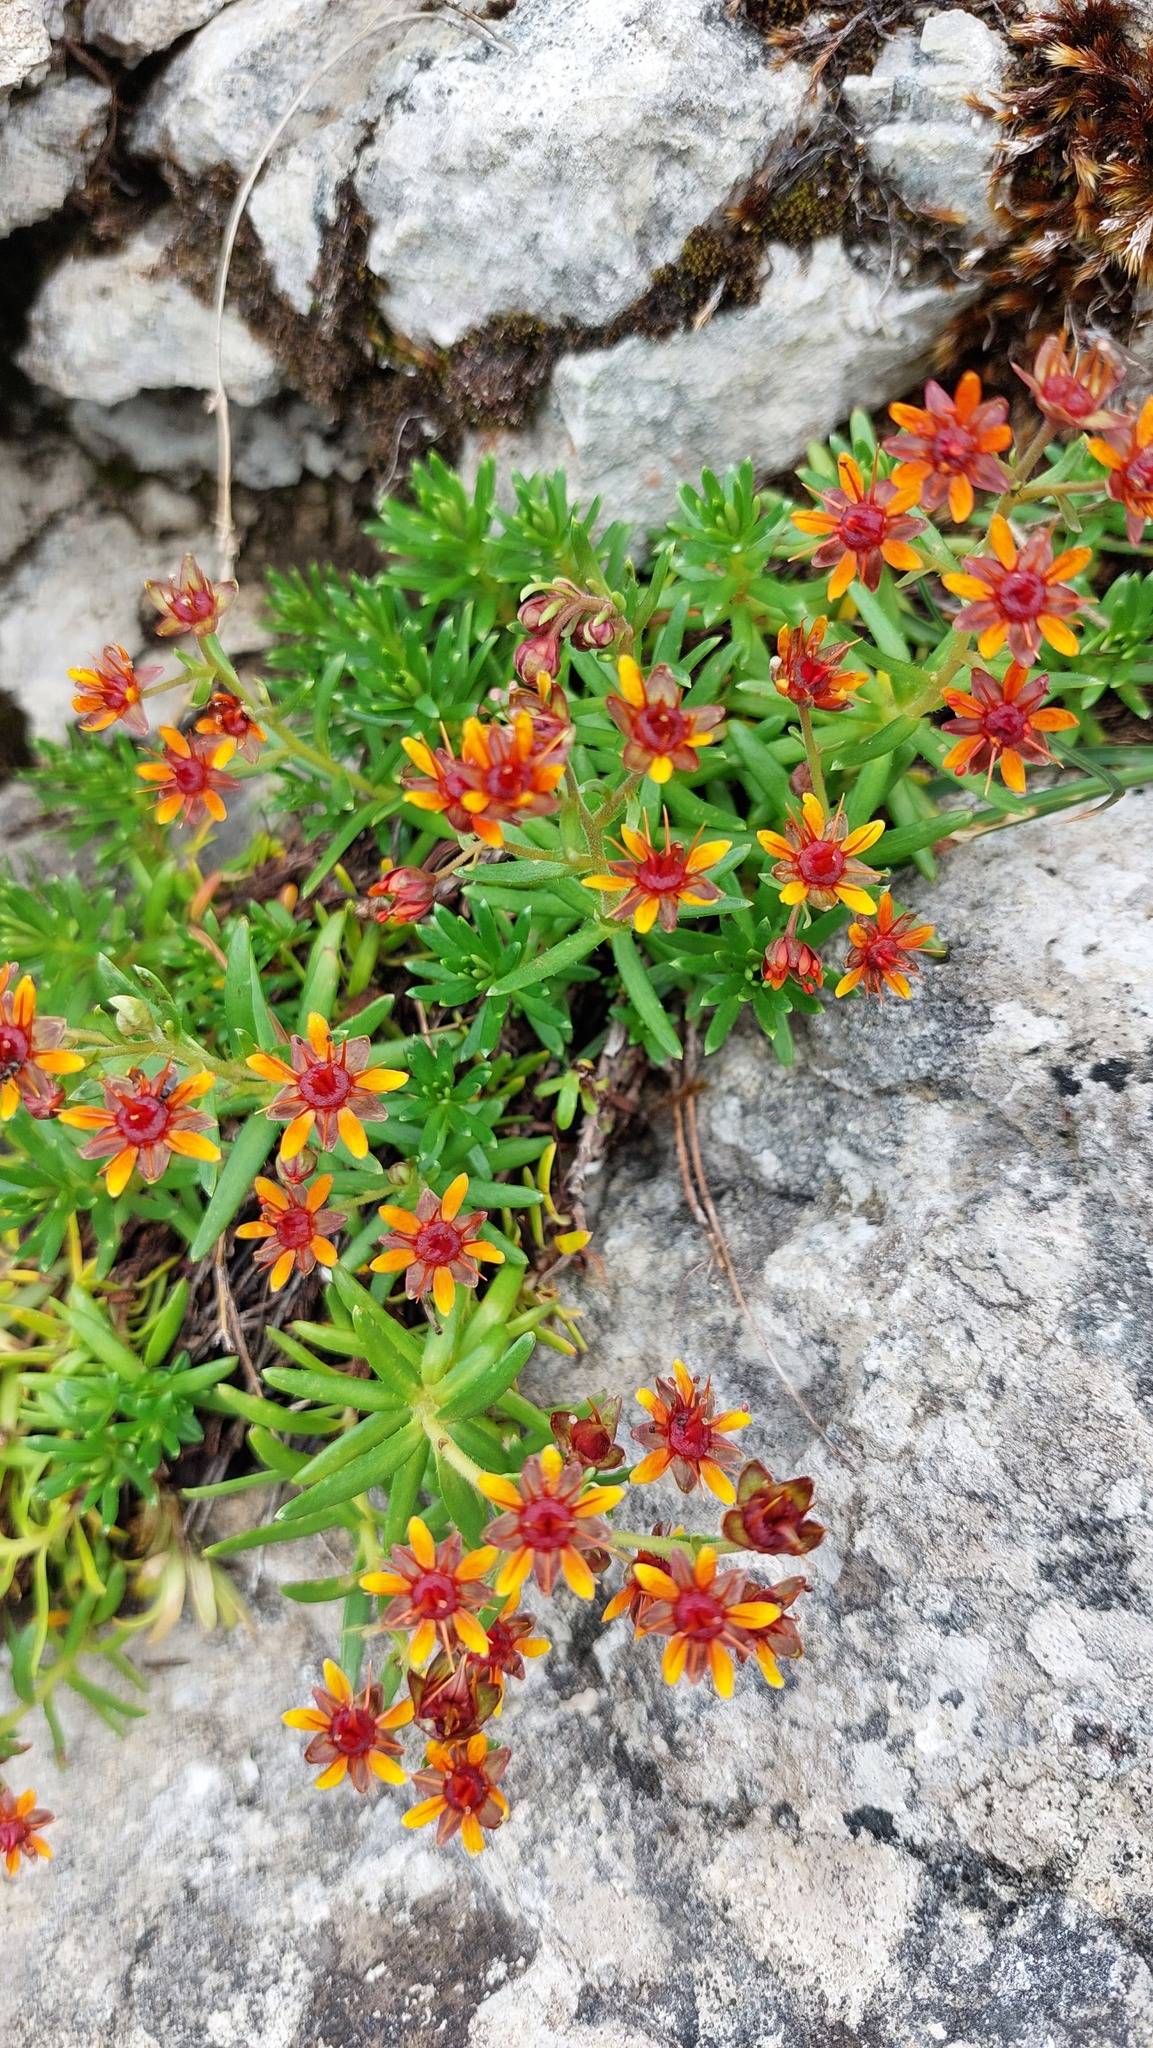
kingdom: Plantae
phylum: Tracheophyta
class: Magnoliopsida
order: Saxifragales
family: Saxifragaceae
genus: Saxifraga
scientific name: Saxifraga aizoides
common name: Yellow mountain saxifrage
